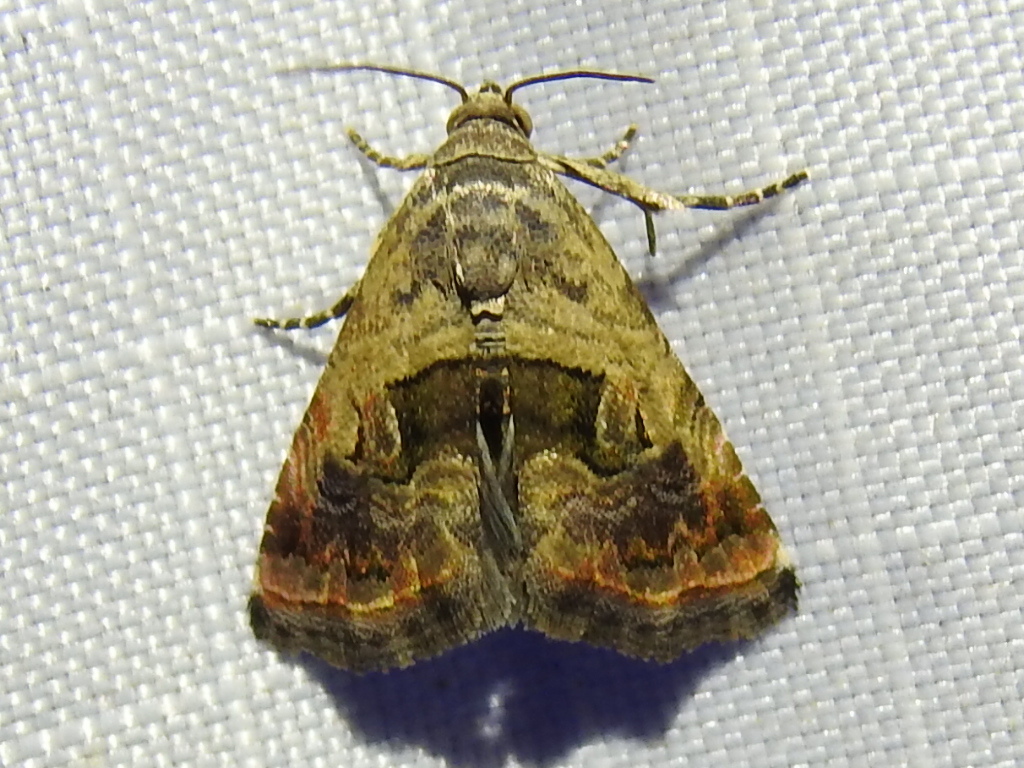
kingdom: Animalia
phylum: Arthropoda
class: Insecta
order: Lepidoptera
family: Noctuidae
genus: Tripudia
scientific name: Tripudia quadrifera
